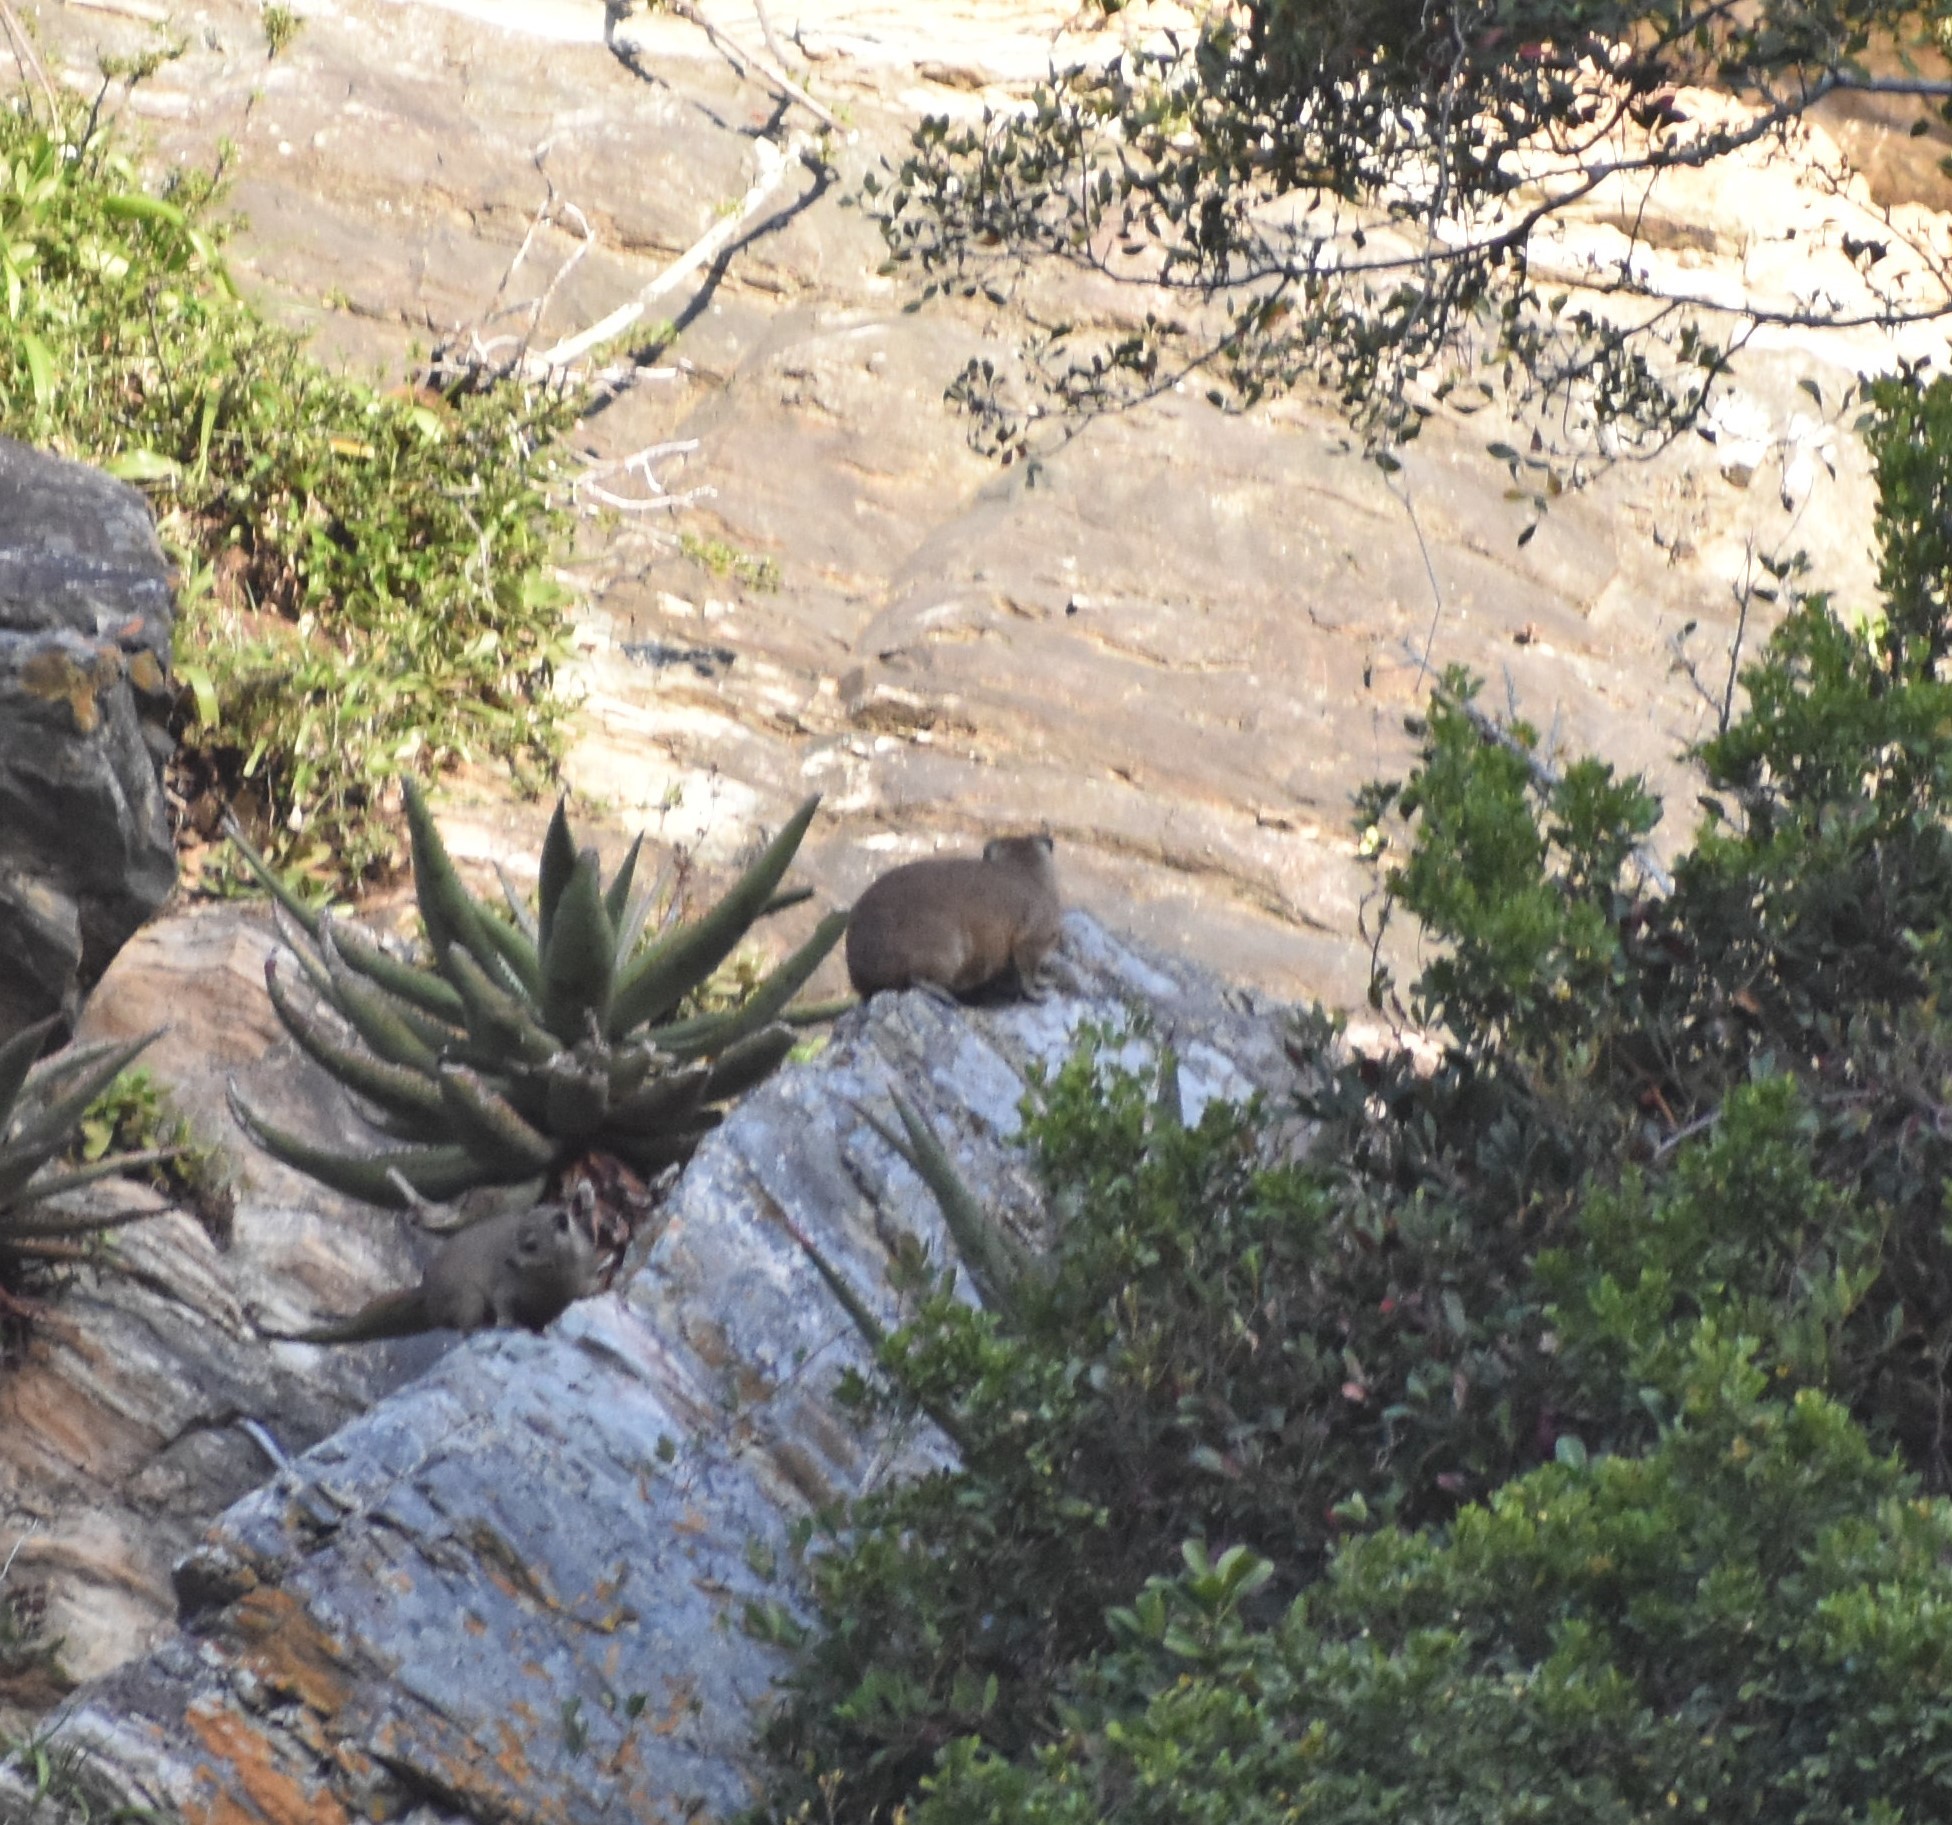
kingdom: Animalia
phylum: Chordata
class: Mammalia
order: Hyracoidea
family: Procaviidae
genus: Procavia
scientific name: Procavia capensis
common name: Rock hyrax
